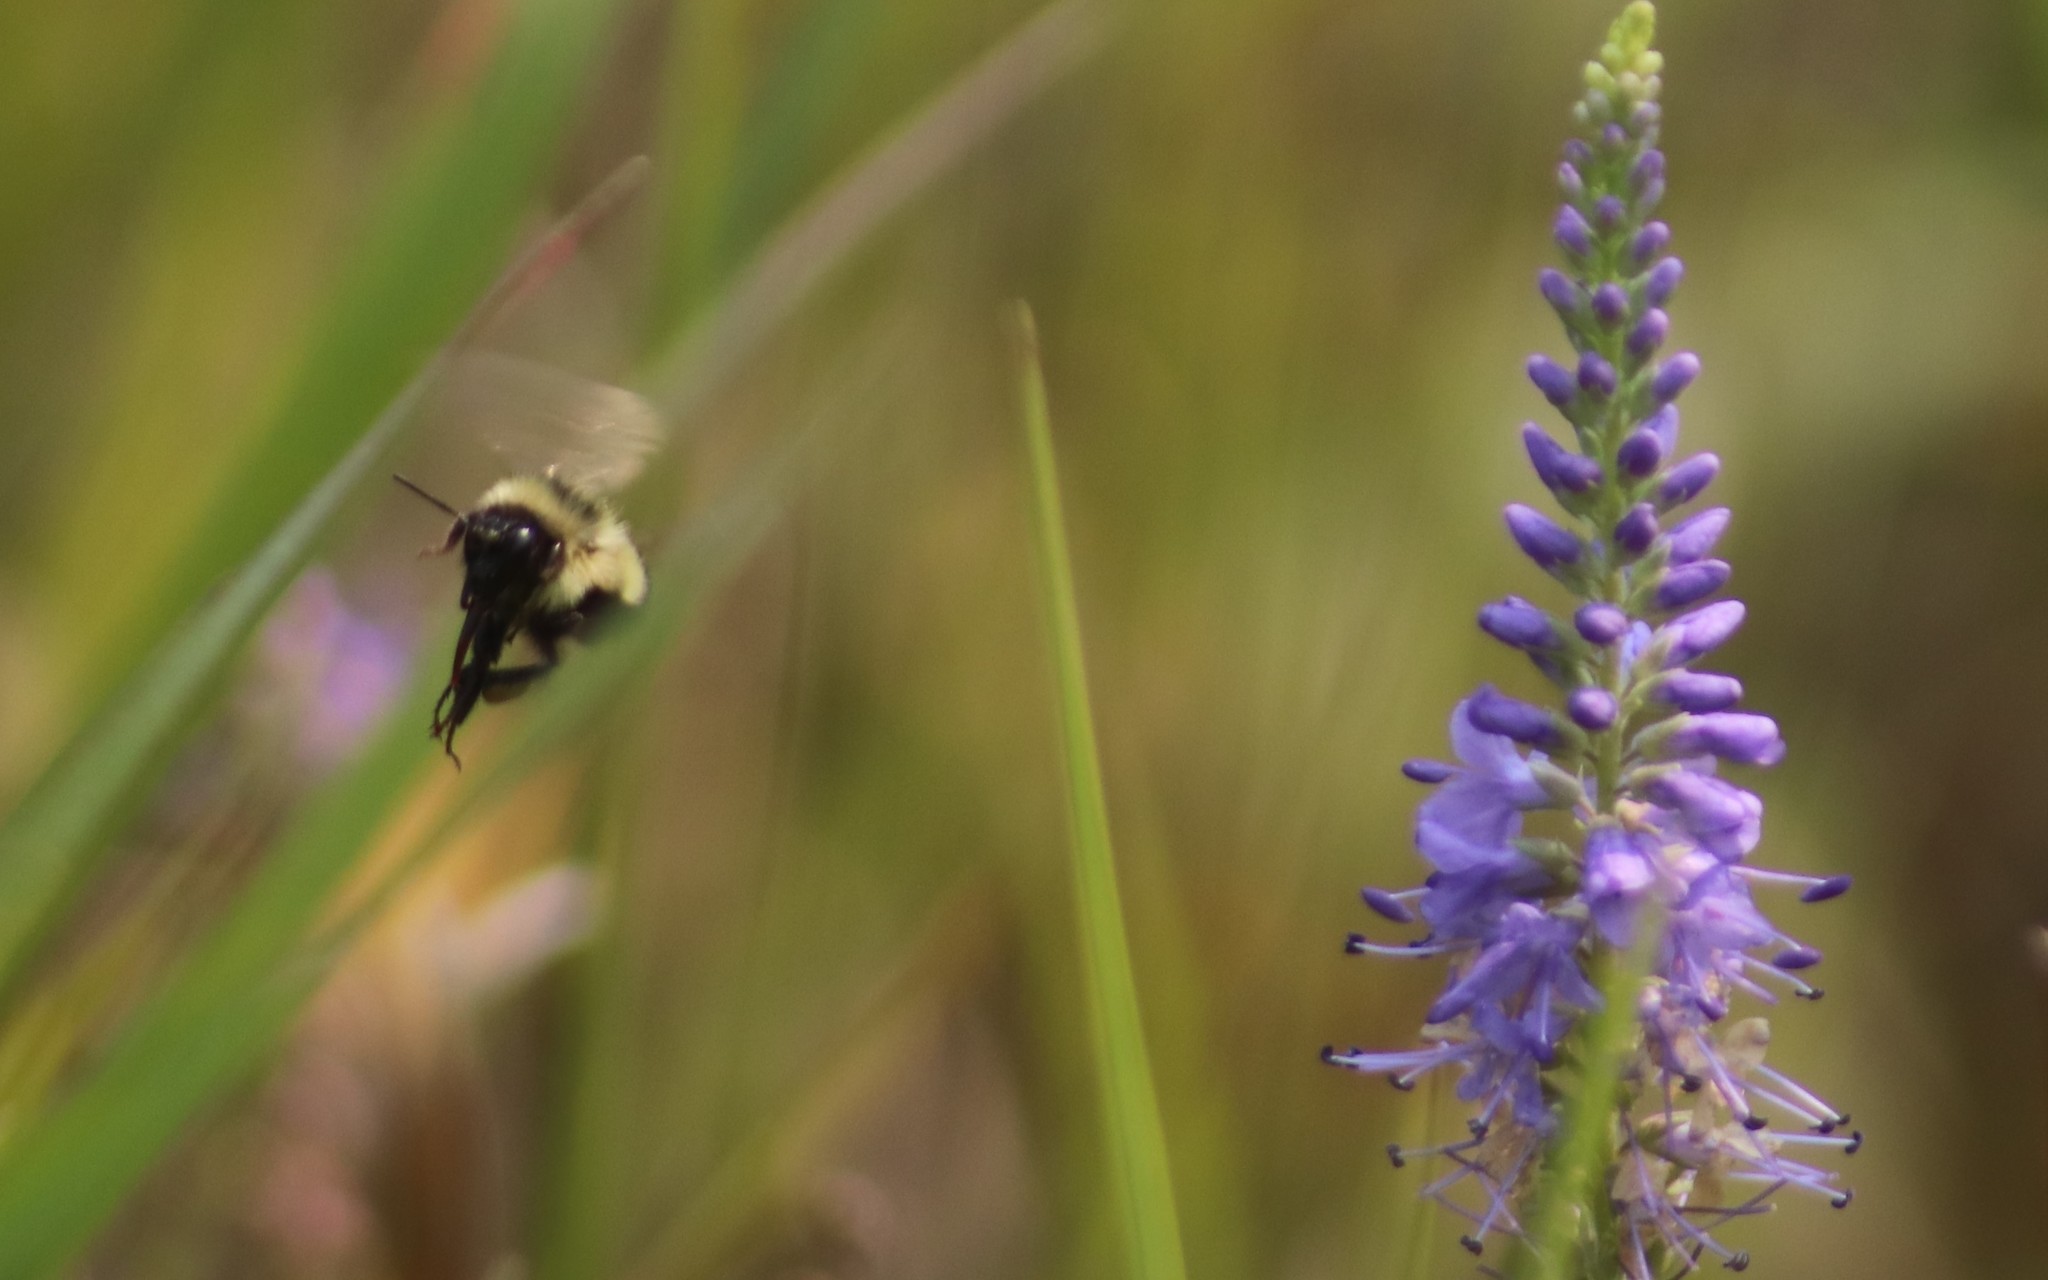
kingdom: Animalia
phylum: Arthropoda
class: Insecta
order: Hymenoptera
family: Apidae
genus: Pyrobombus
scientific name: Pyrobombus
